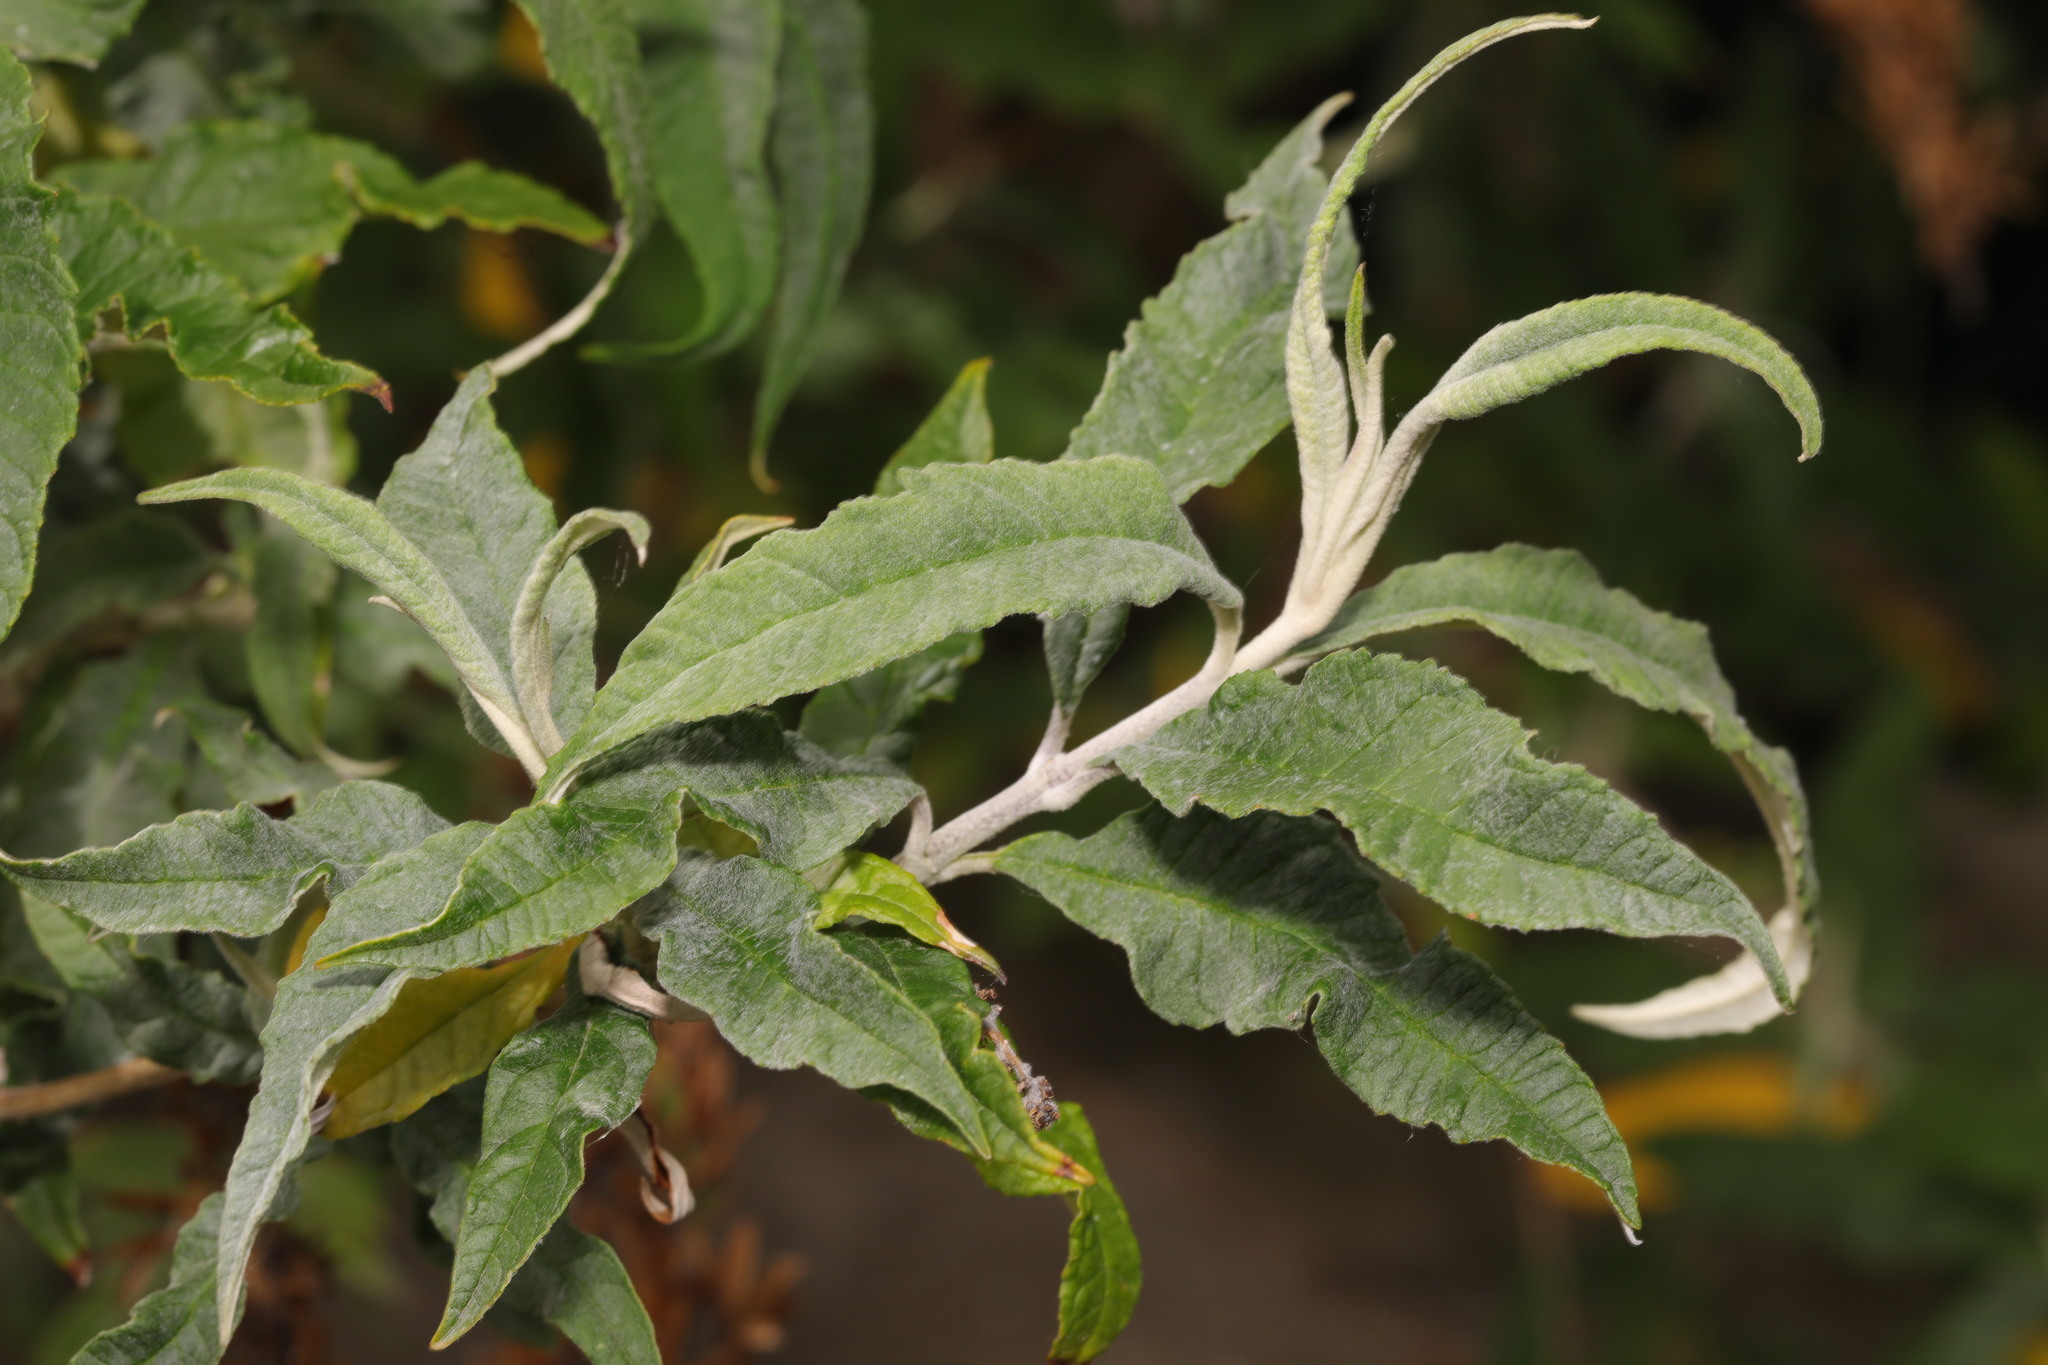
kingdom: Plantae
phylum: Tracheophyta
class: Magnoliopsida
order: Lamiales
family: Scrophulariaceae
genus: Buddleja
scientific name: Buddleja davidii
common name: Butterfly-bush
